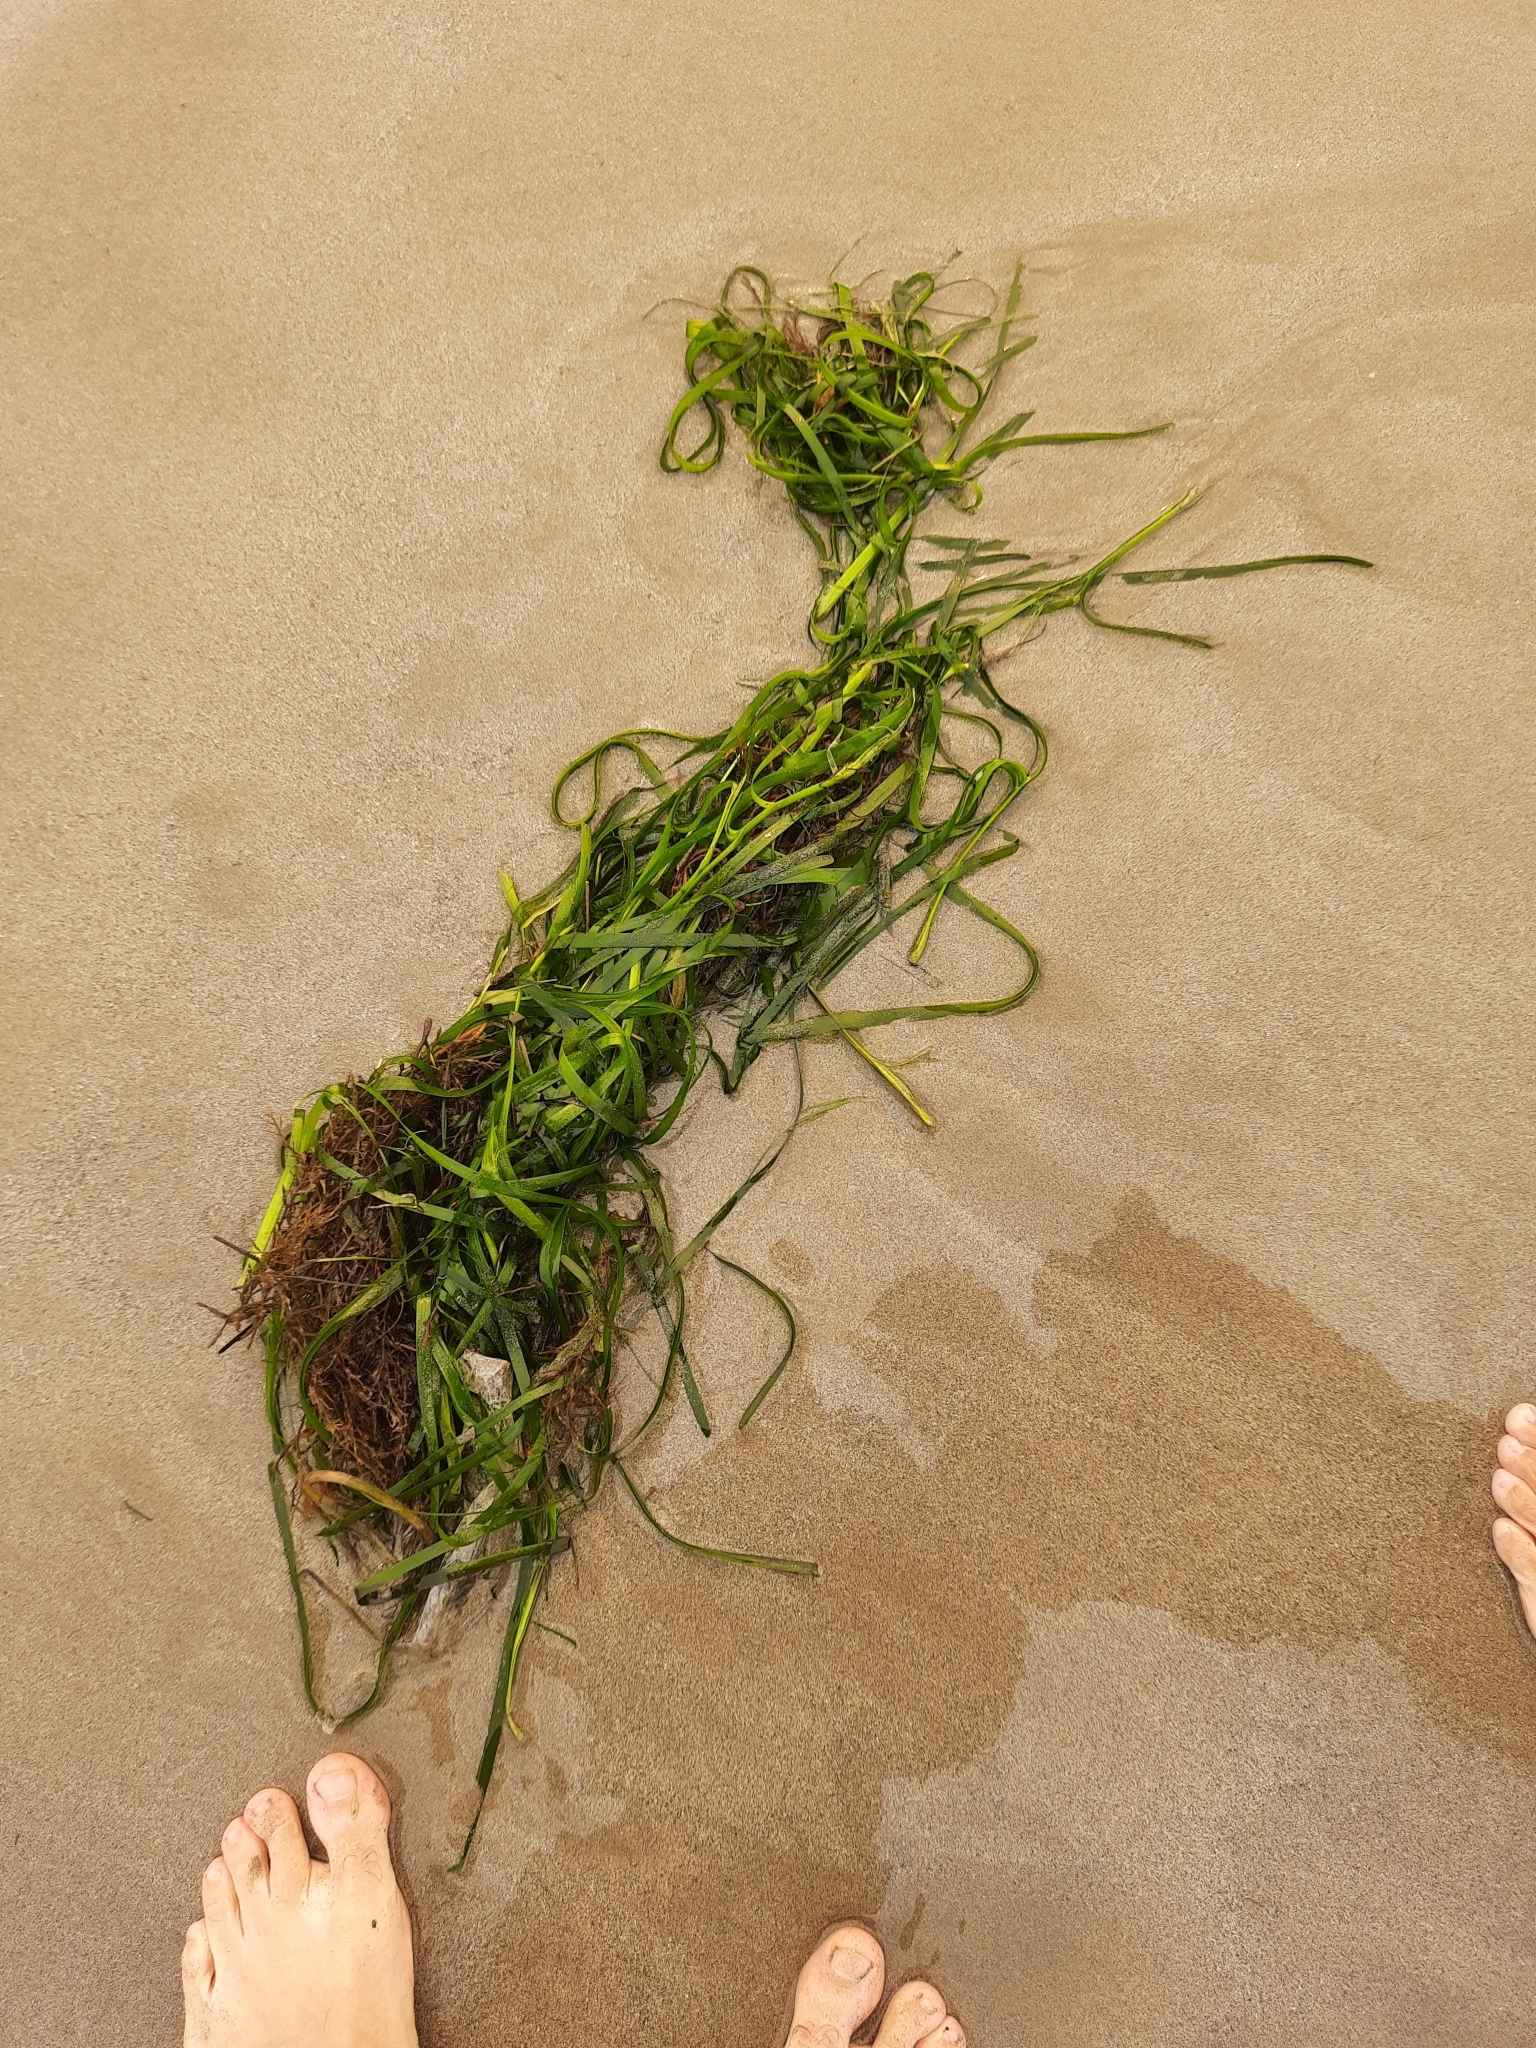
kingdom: Plantae
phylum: Tracheophyta
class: Liliopsida
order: Alismatales
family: Zosteraceae
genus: Zostera
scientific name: Zostera marina
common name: Eelgrass
